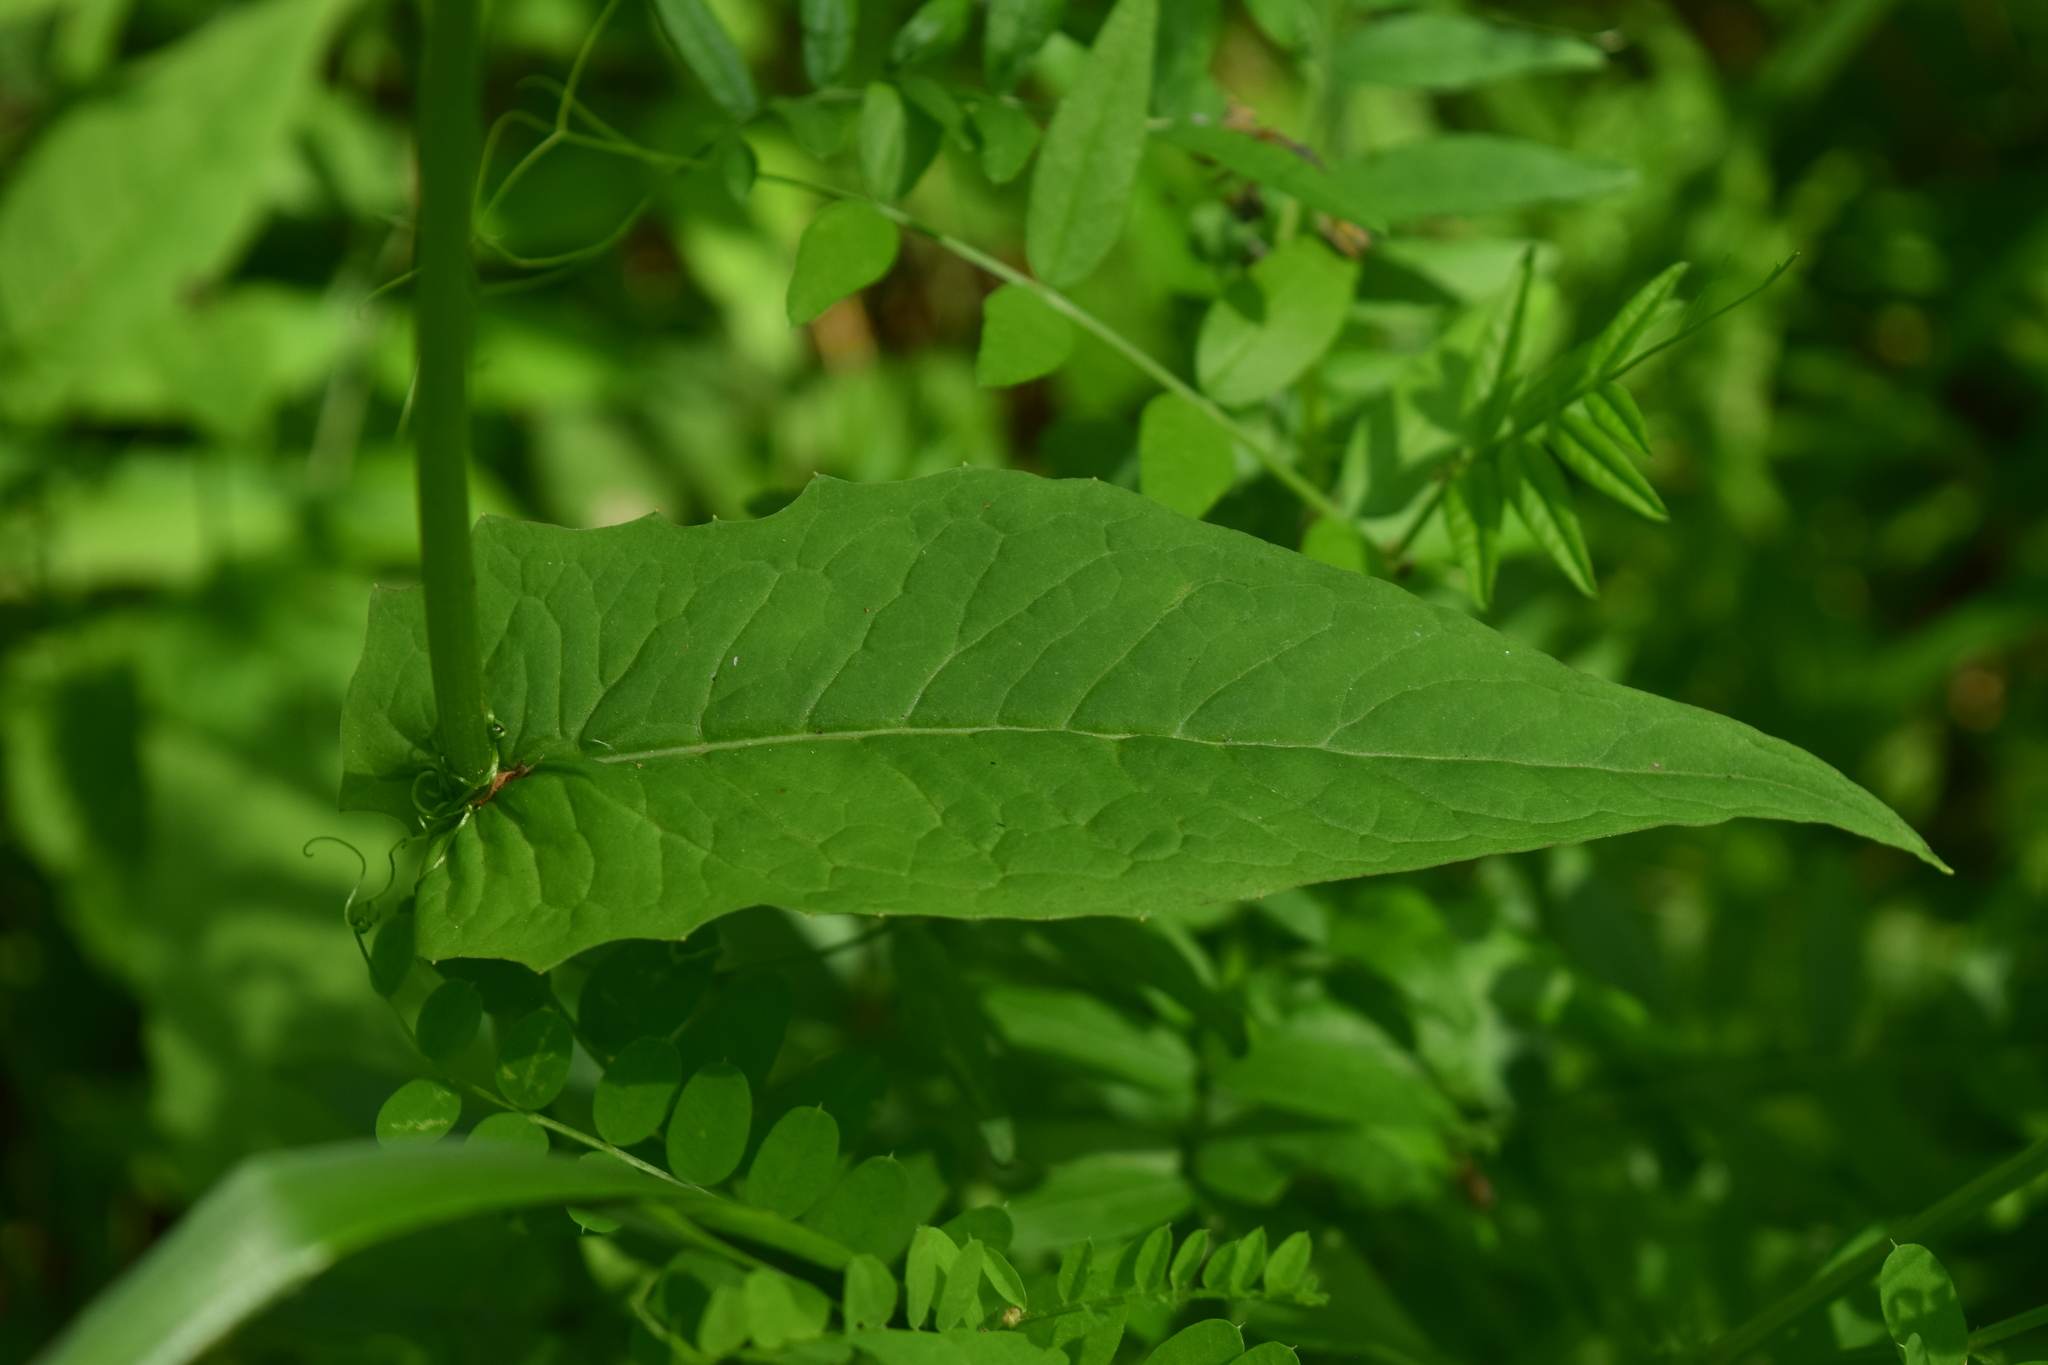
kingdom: Plantae
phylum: Tracheophyta
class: Magnoliopsida
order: Asterales
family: Asteraceae
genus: Crepis
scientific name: Crepis paludosa
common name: Marsh hawk's-beard
